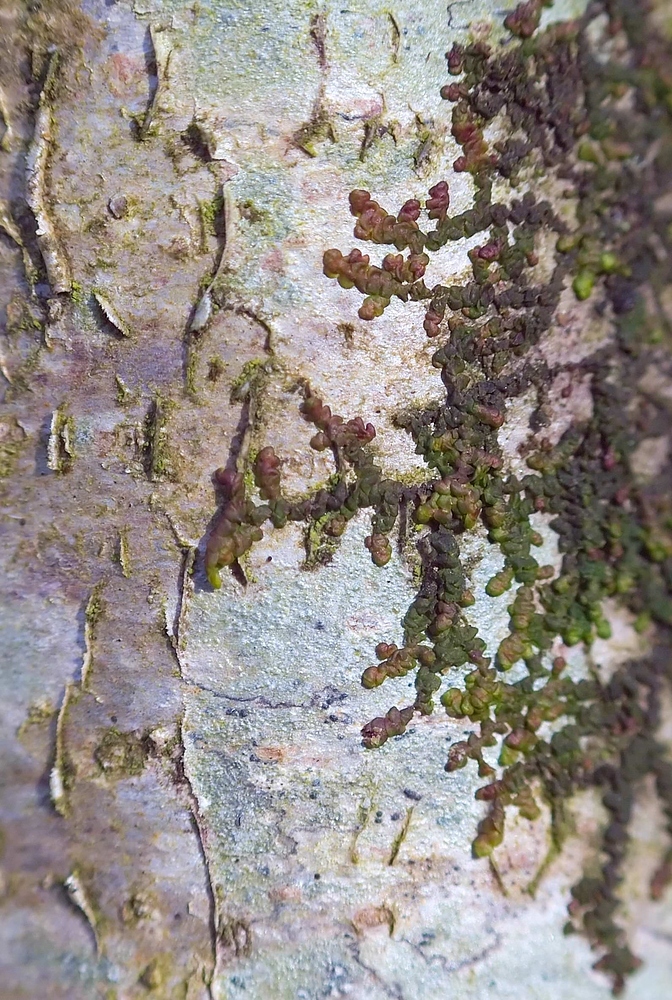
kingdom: Plantae
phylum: Marchantiophyta
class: Jungermanniopsida
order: Porellales
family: Frullaniaceae
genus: Frullania
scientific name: Frullania dilatata
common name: Dilated scalewort
